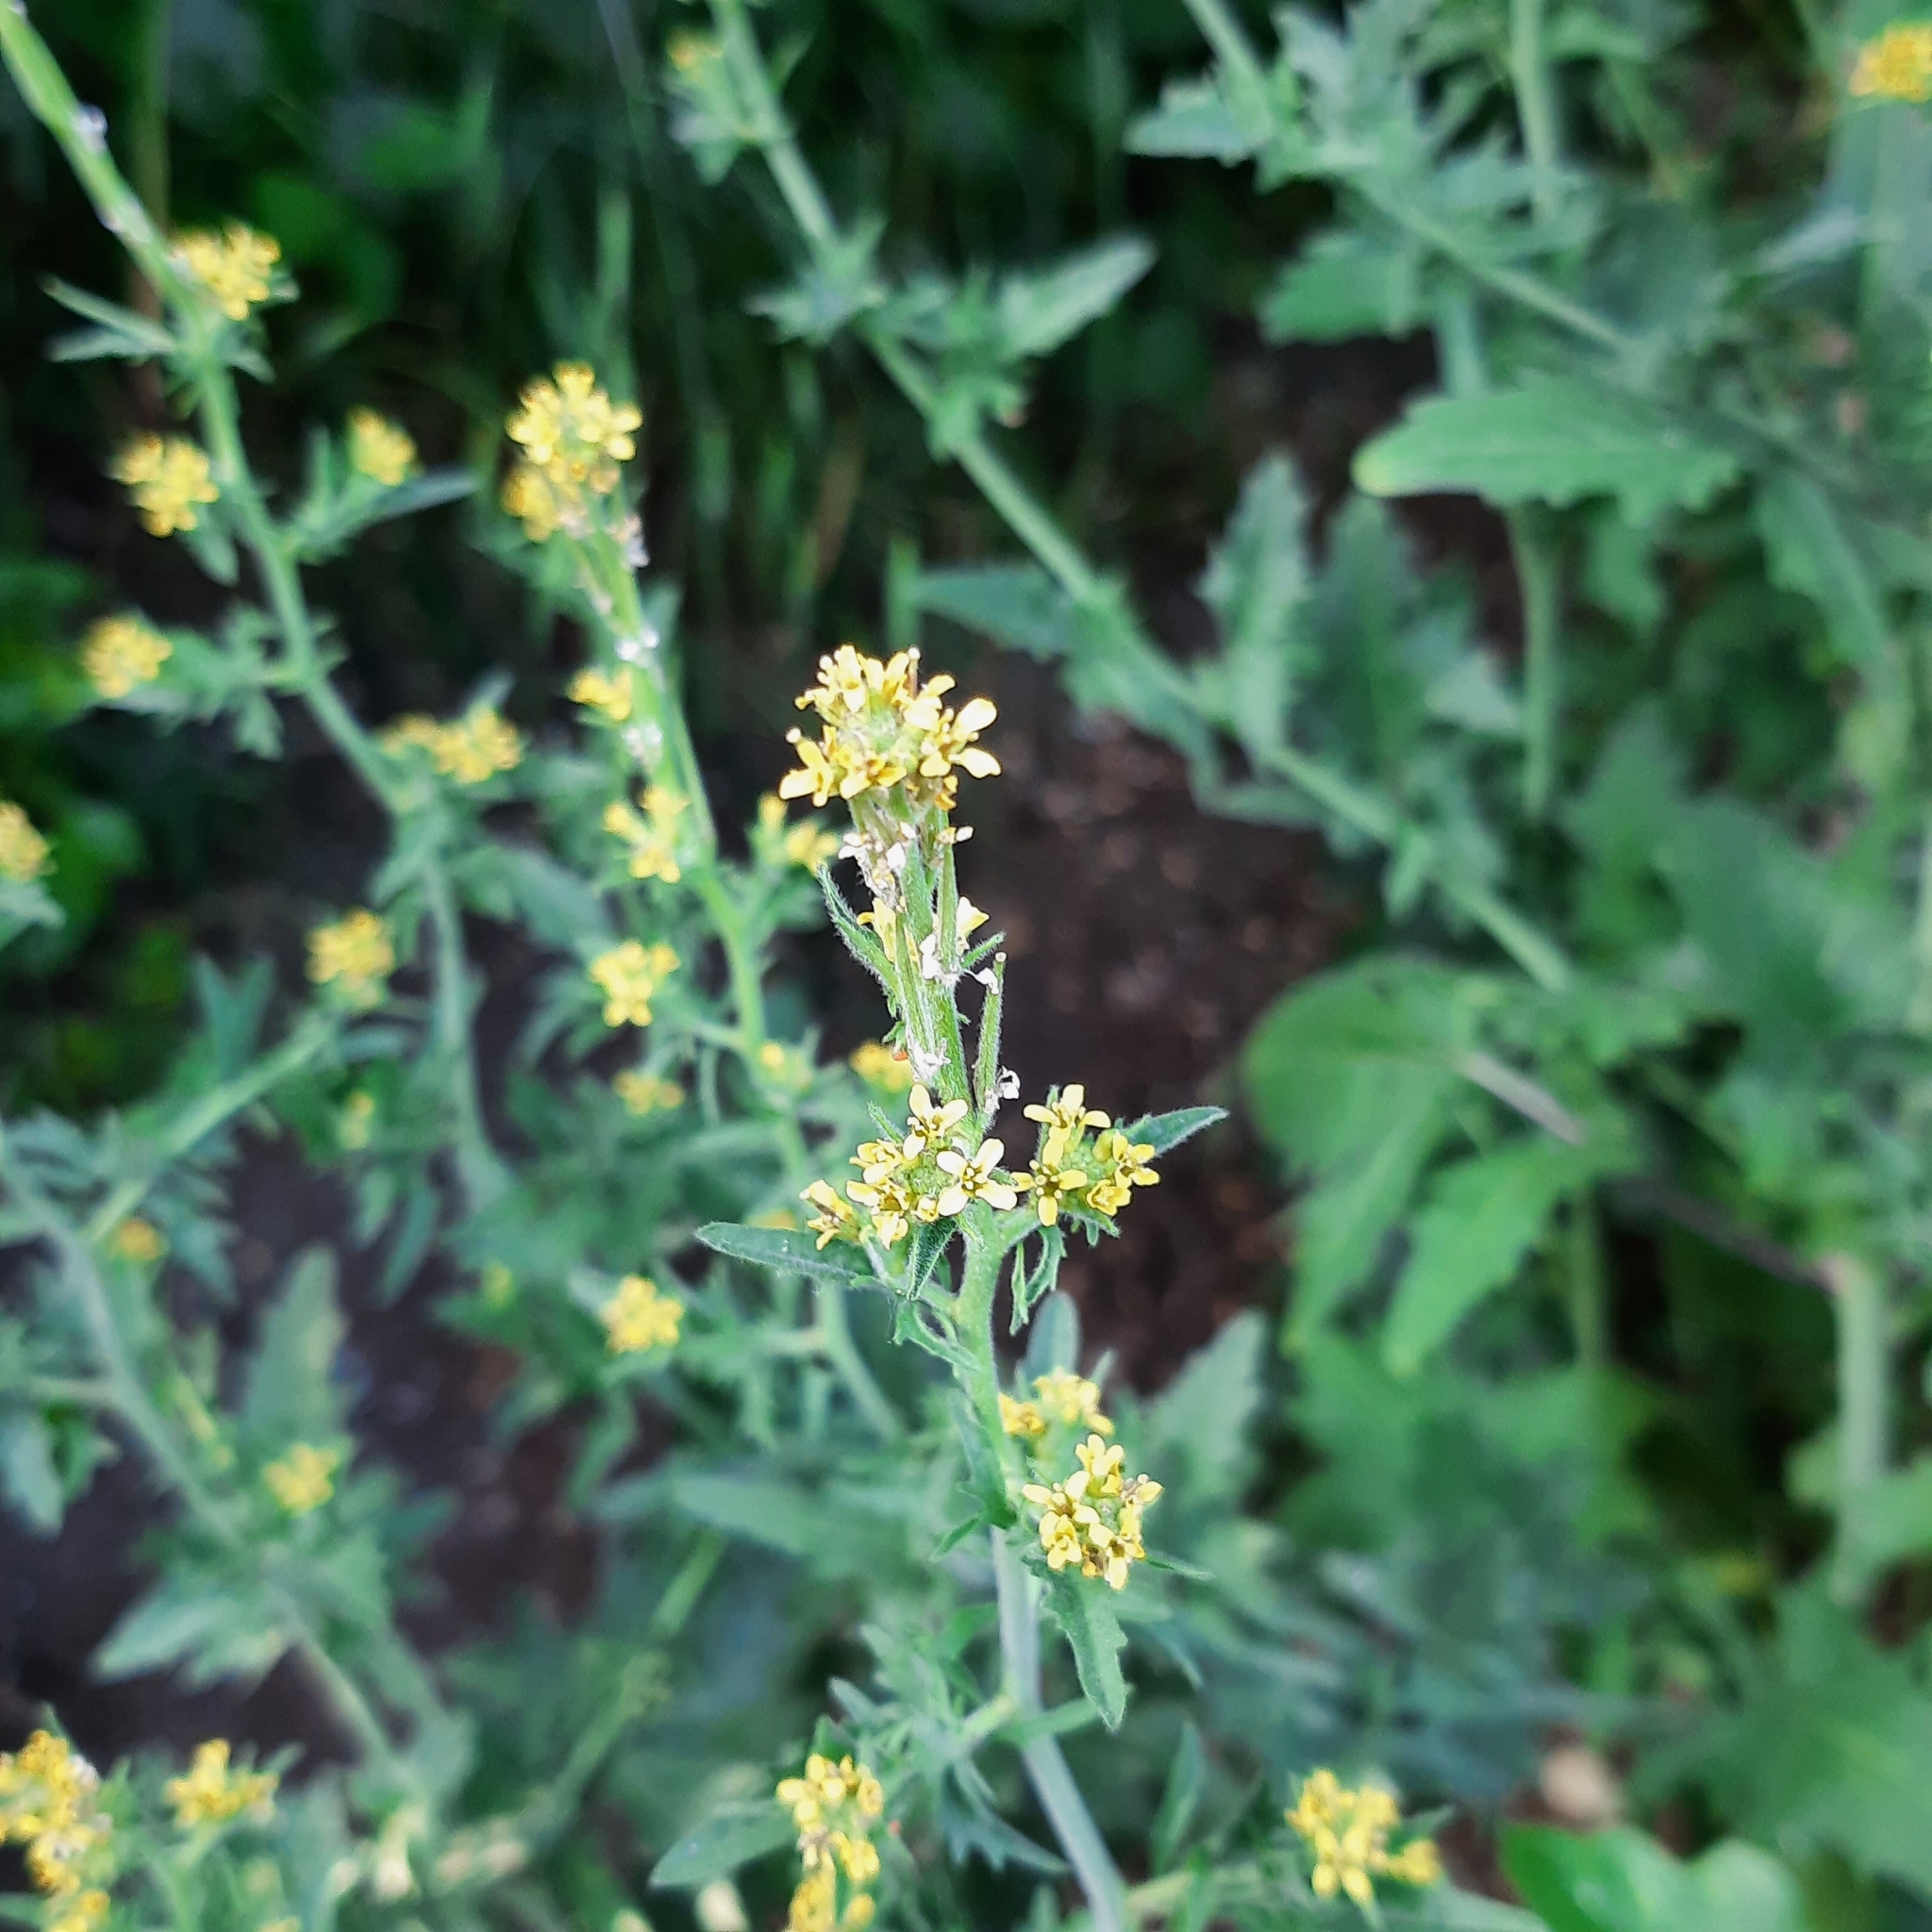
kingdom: Plantae
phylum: Tracheophyta
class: Magnoliopsida
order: Brassicales
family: Brassicaceae
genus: Sisymbrium
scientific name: Sisymbrium officinale
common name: Hedge mustard
